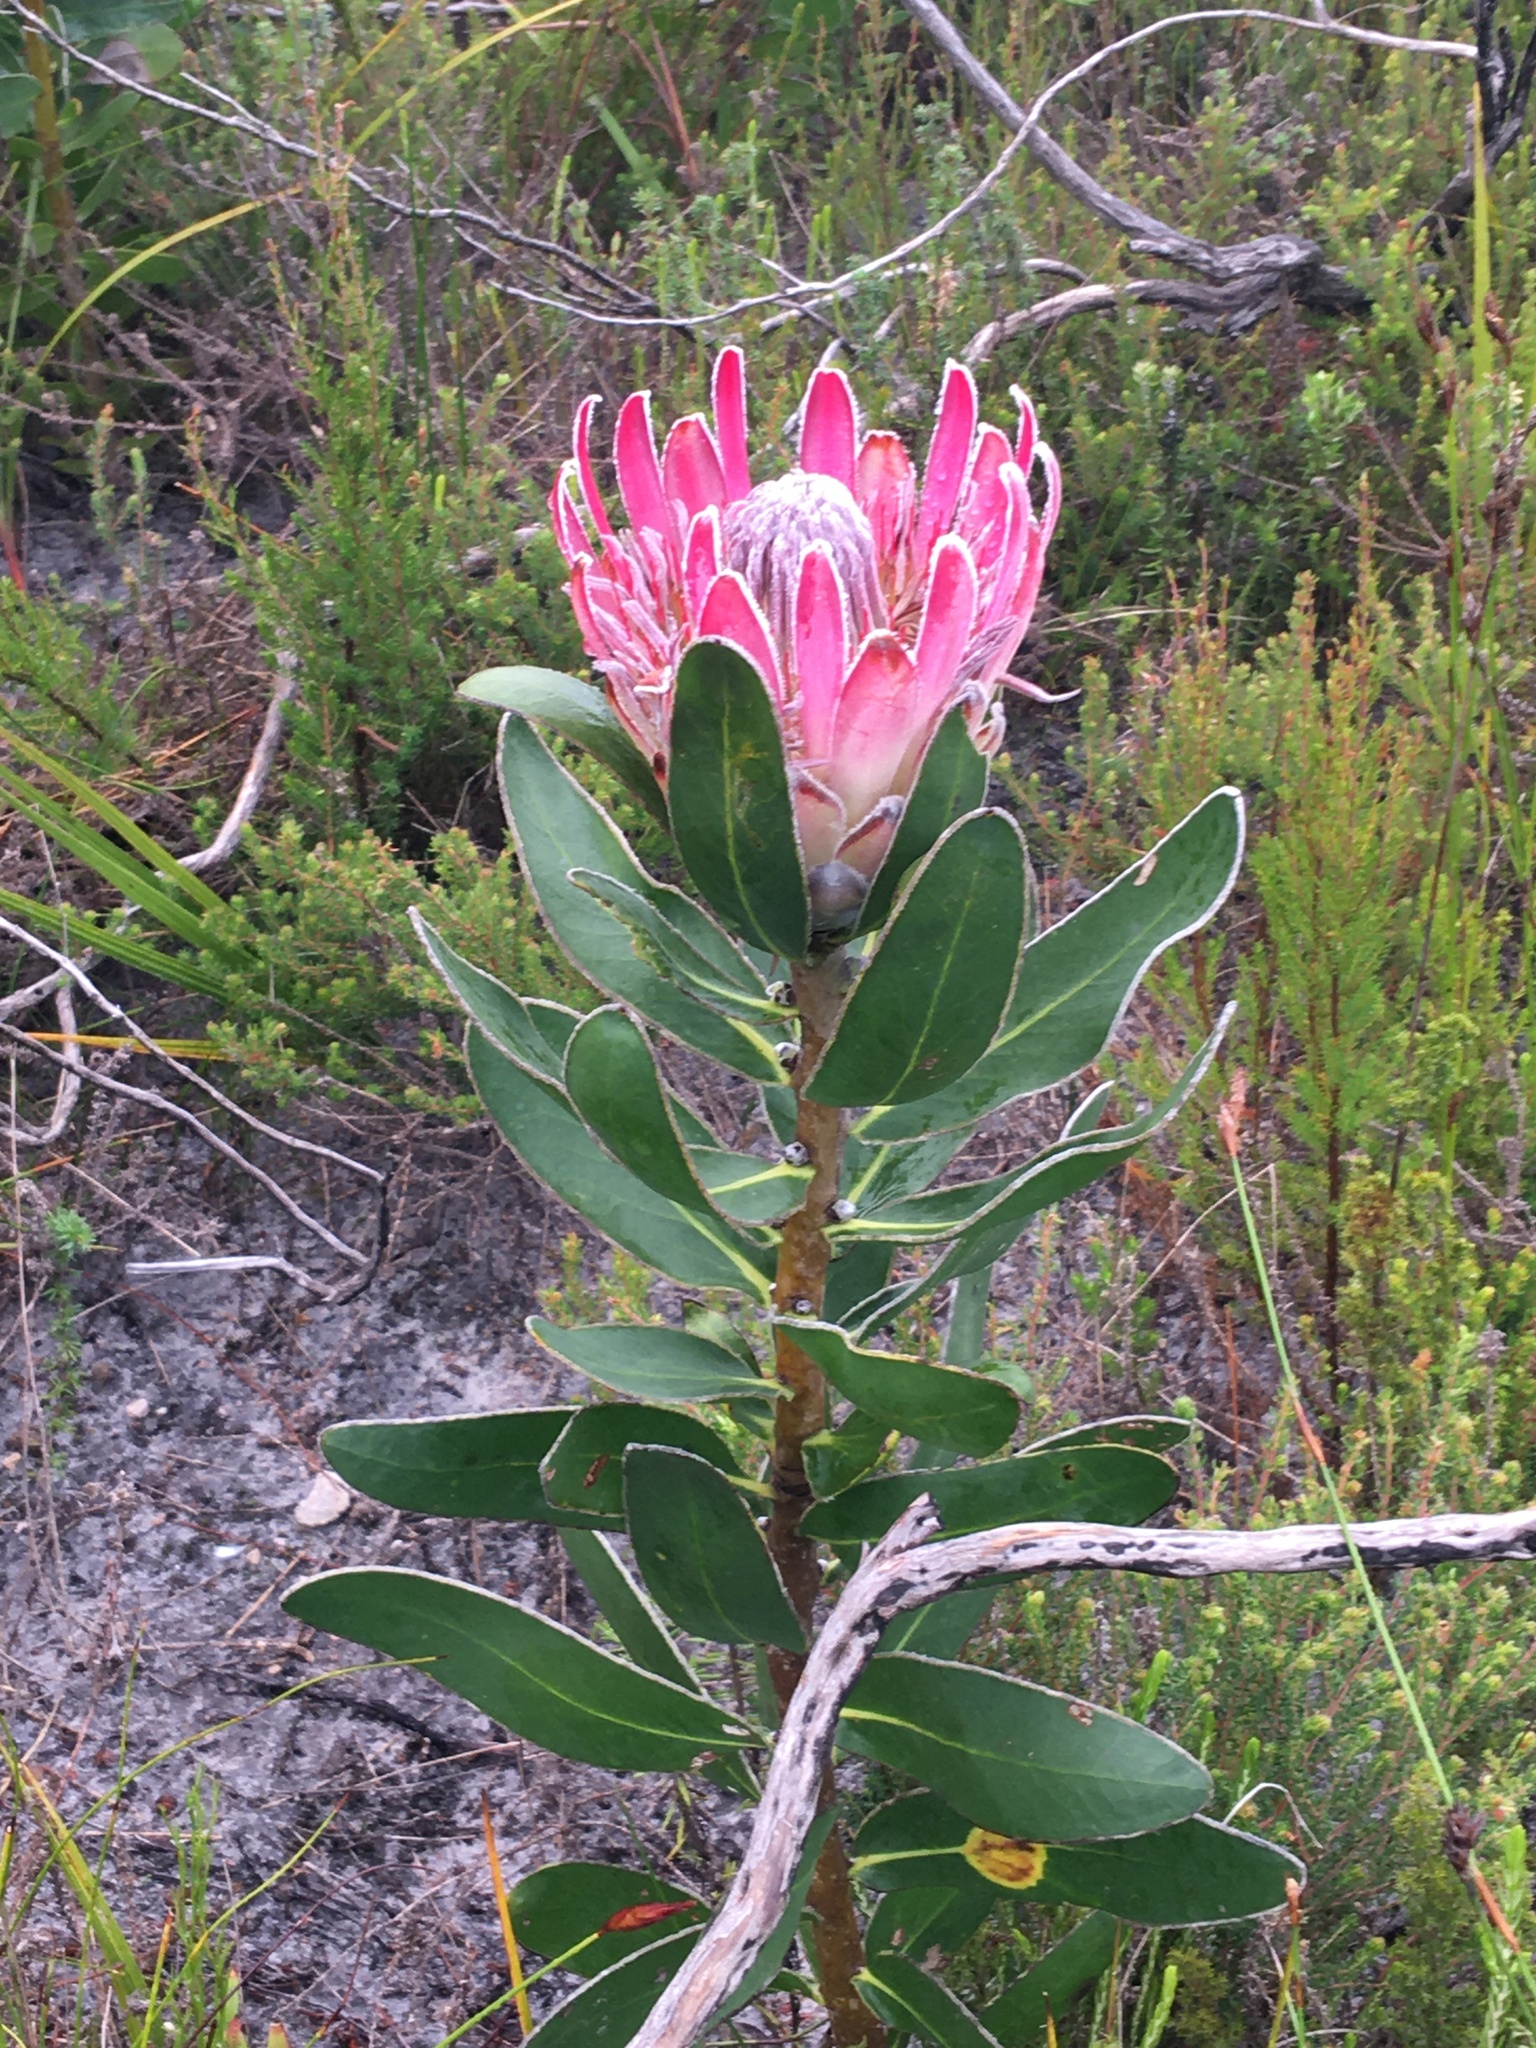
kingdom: Plantae
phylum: Tracheophyta
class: Magnoliopsida
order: Proteales
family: Proteaceae
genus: Protea
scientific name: Protea compacta
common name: Bot river protea
